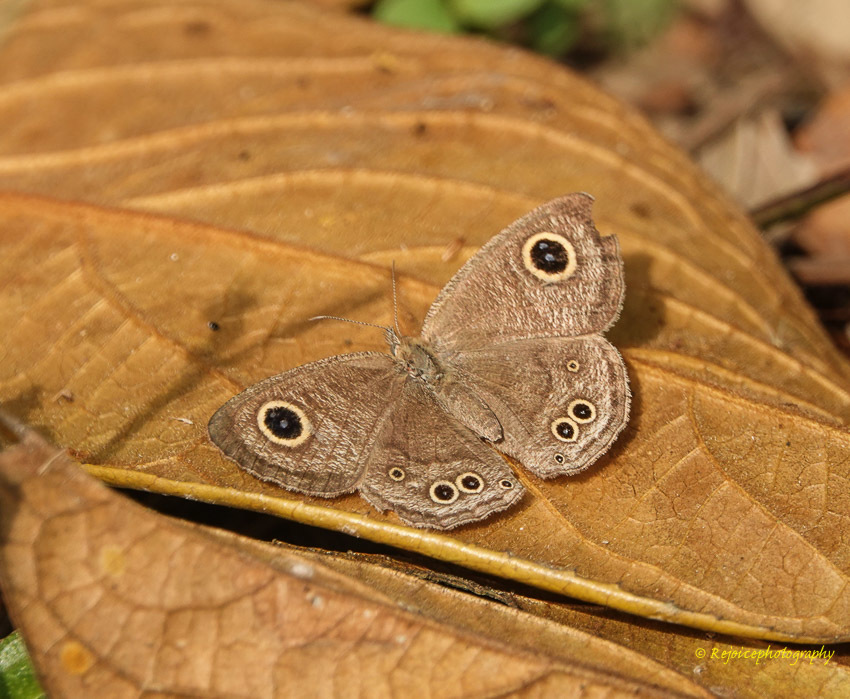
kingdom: Animalia
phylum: Arthropoda
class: Insecta
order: Lepidoptera
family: Nymphalidae
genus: Ypthima
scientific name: Ypthima huebneri
